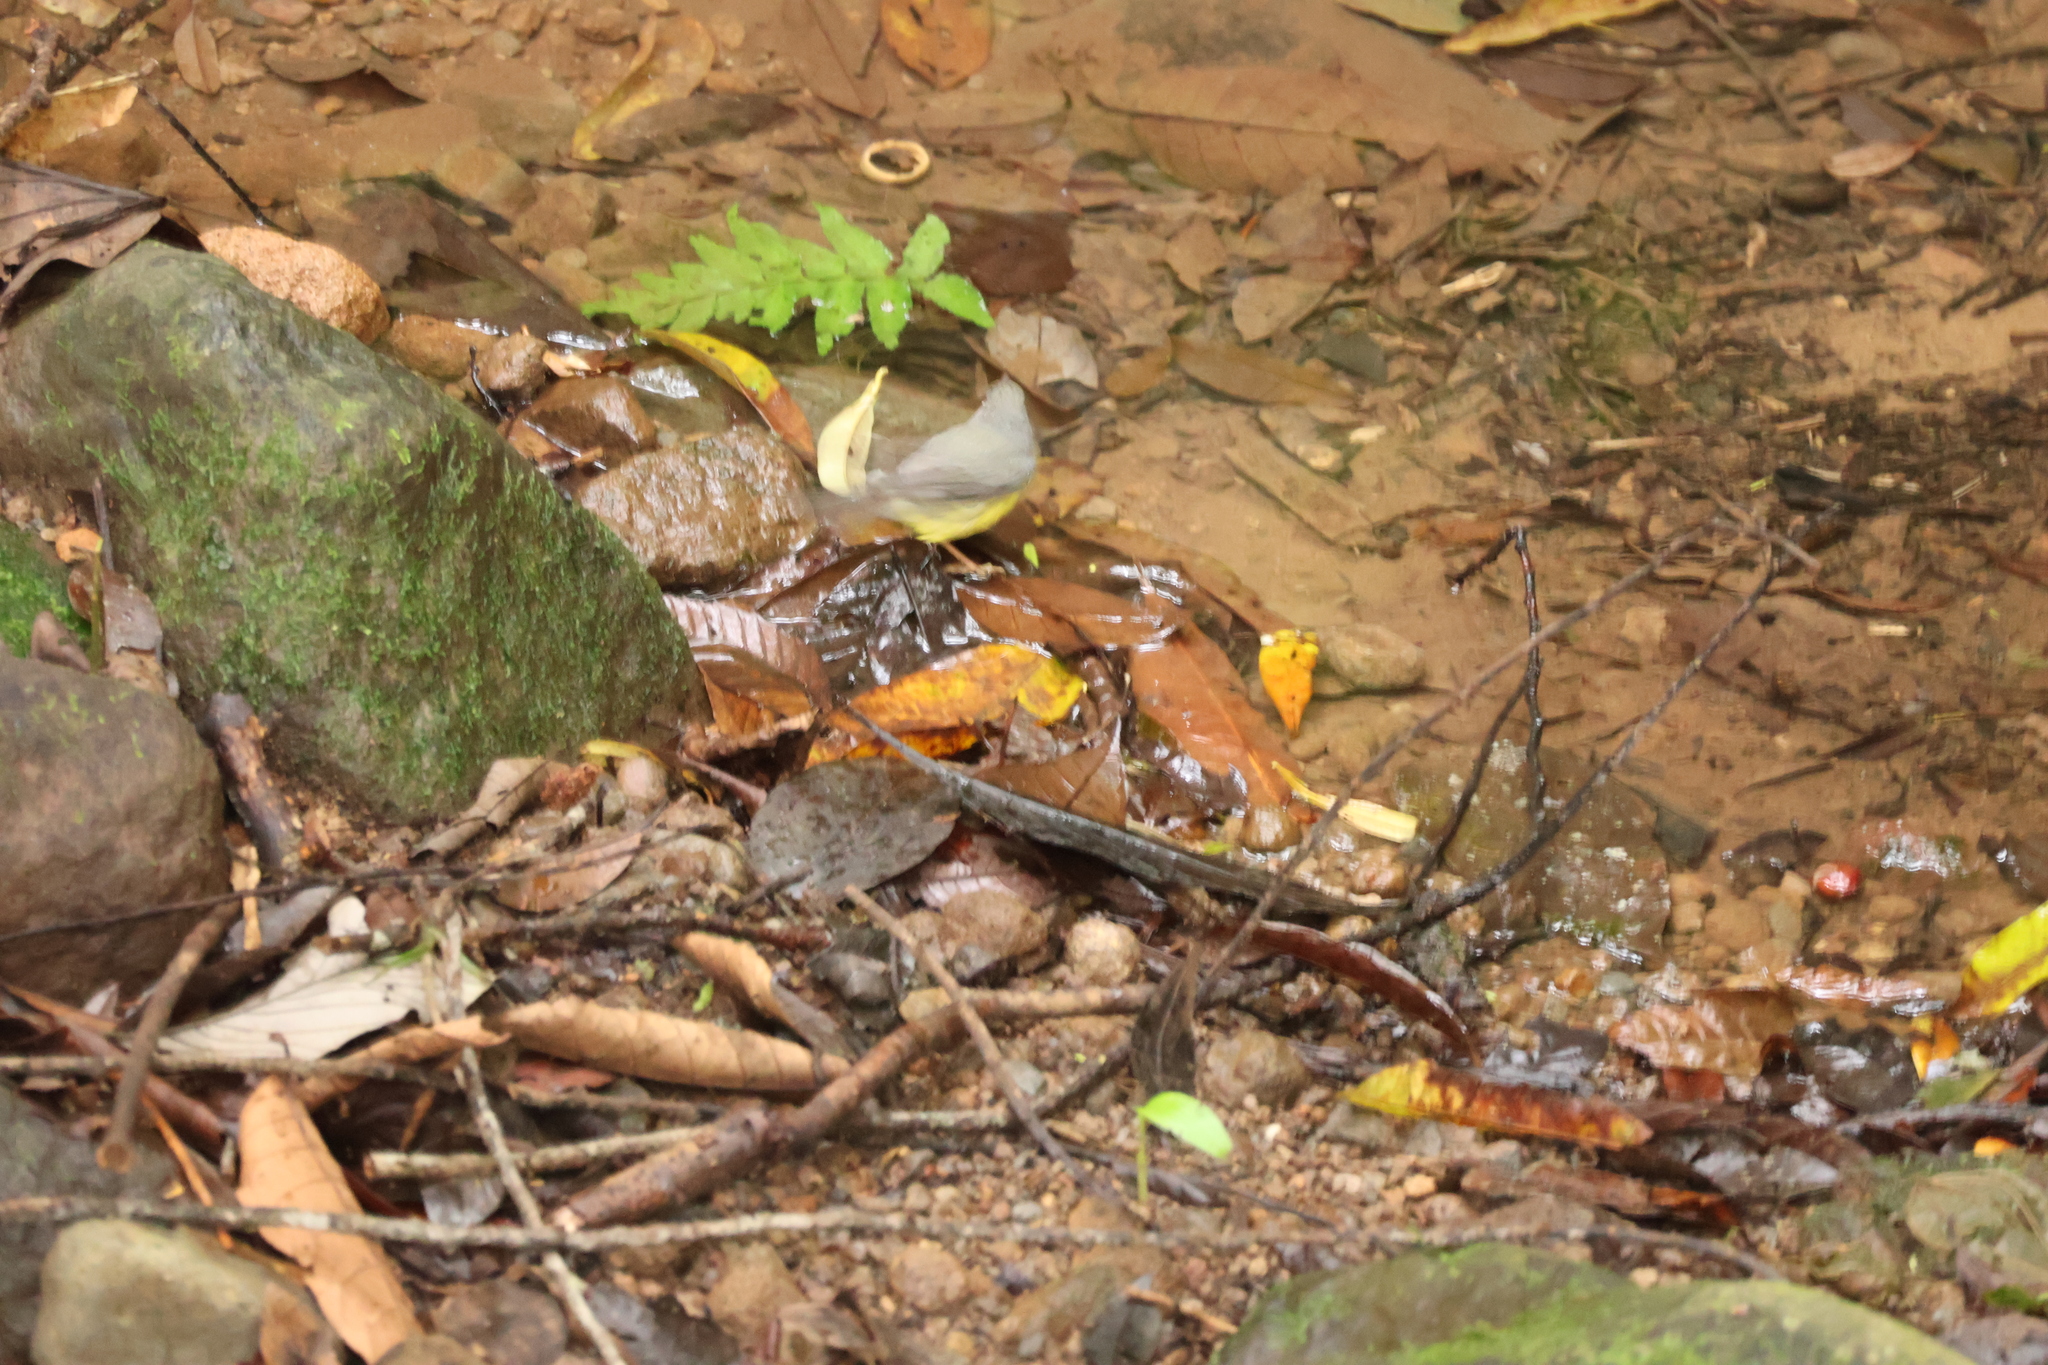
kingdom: Animalia
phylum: Chordata
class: Aves
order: Passeriformes
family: Parulidae
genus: Cardellina
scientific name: Cardellina canadensis
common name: Canada warbler
